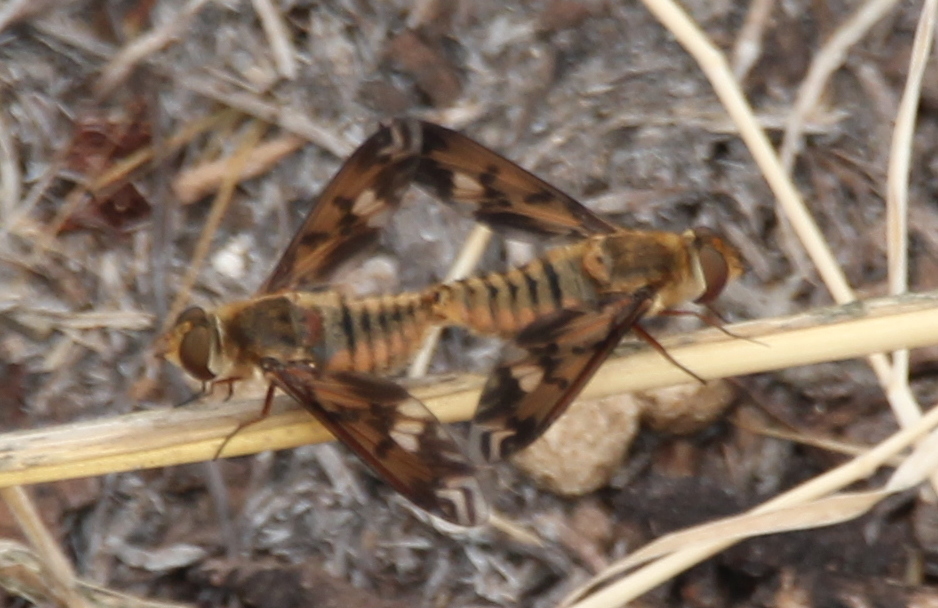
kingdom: Animalia
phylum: Arthropoda
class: Insecta
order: Diptera
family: Bombyliidae
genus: Poecilanthrax
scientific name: Poecilanthrax arethusa
